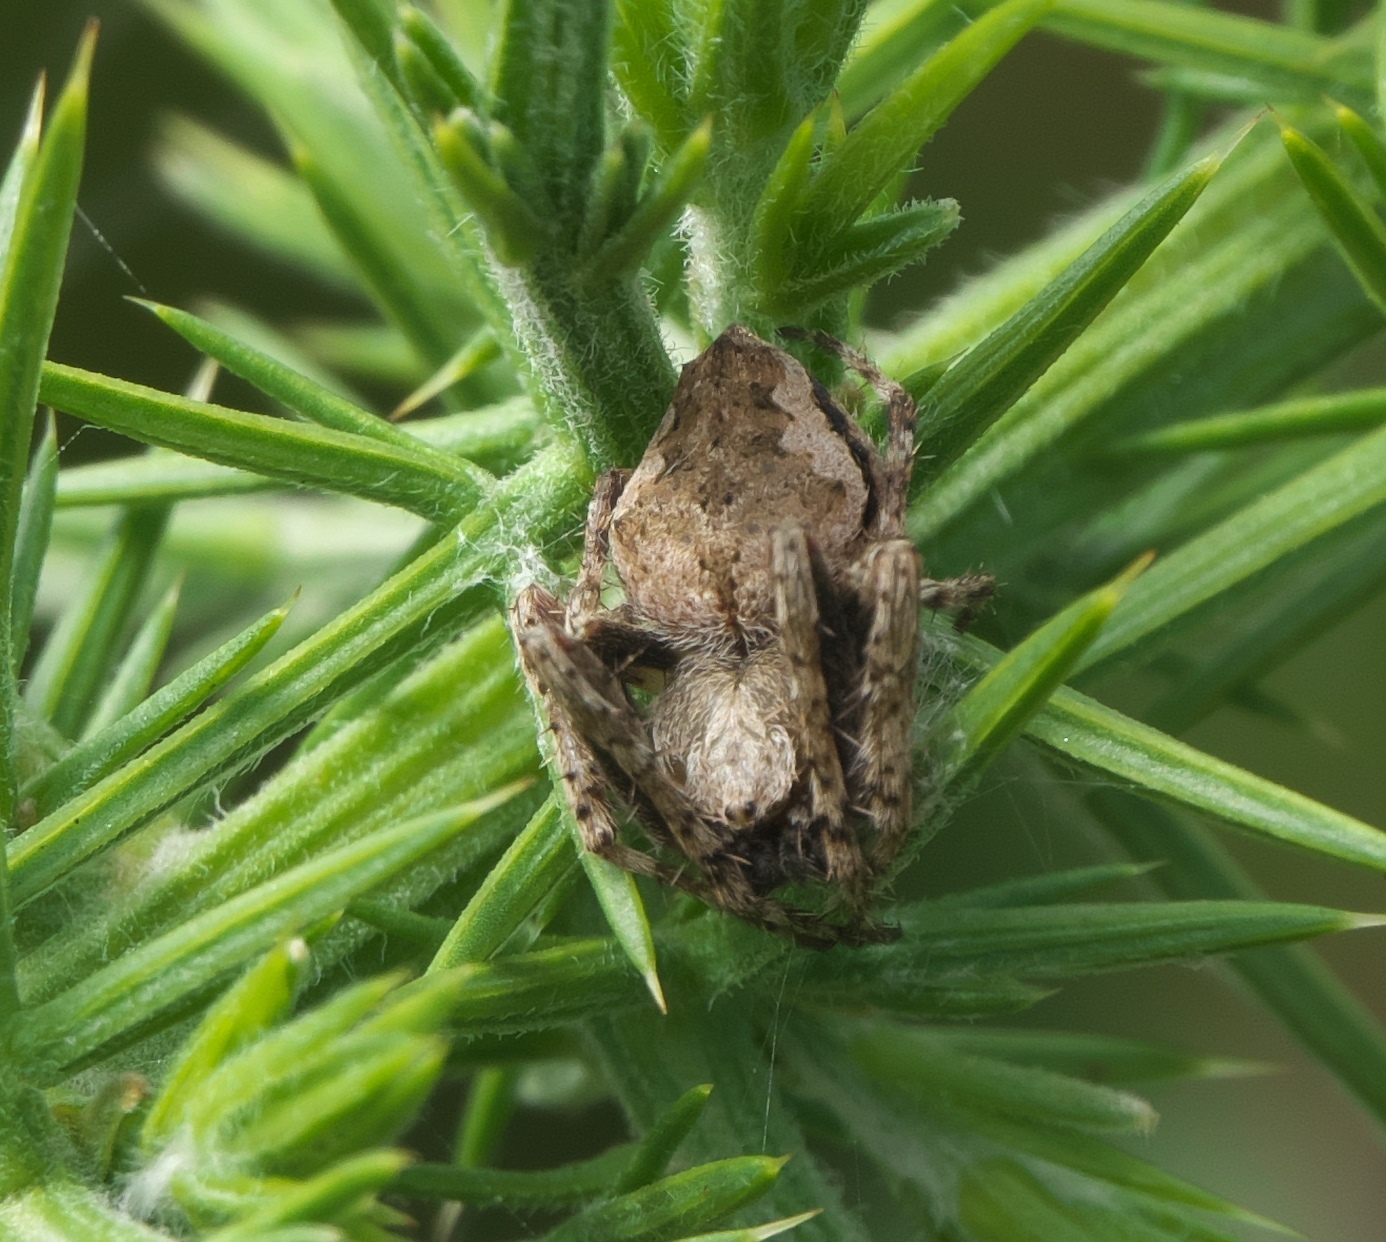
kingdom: Animalia
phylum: Arthropoda
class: Arachnida
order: Araneae
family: Araneidae
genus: Eriophora
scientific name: Eriophora pustulosa
